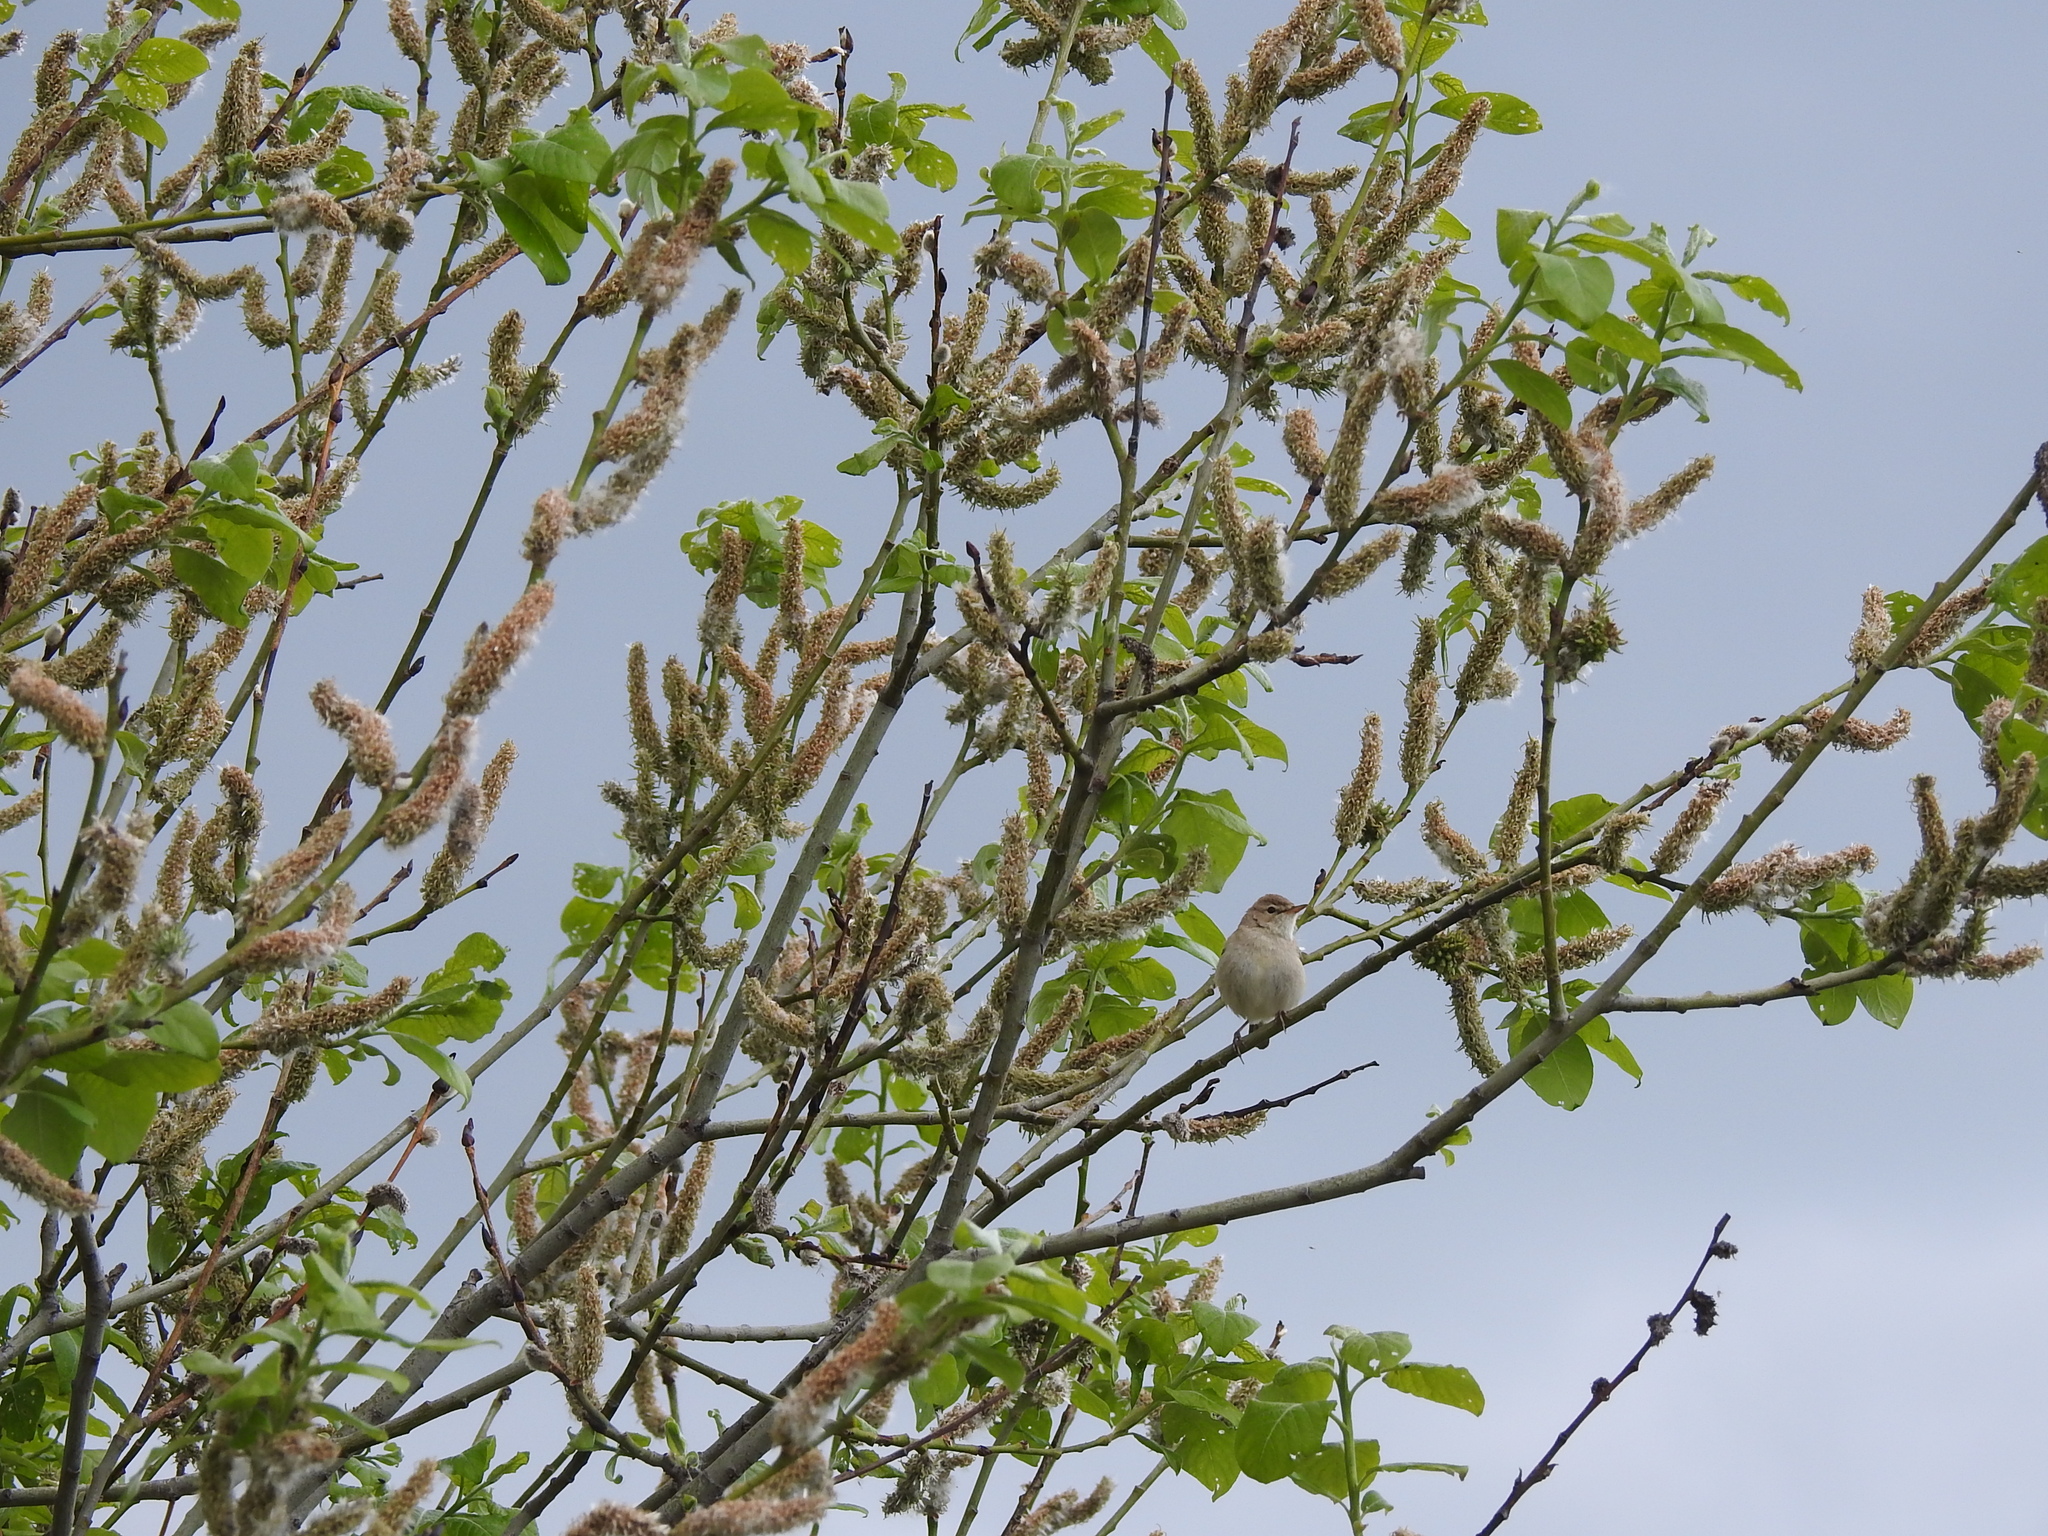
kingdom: Animalia
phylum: Chordata
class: Aves
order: Passeriformes
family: Acrocephalidae
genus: Iduna
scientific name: Iduna caligata
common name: Booted warbler
